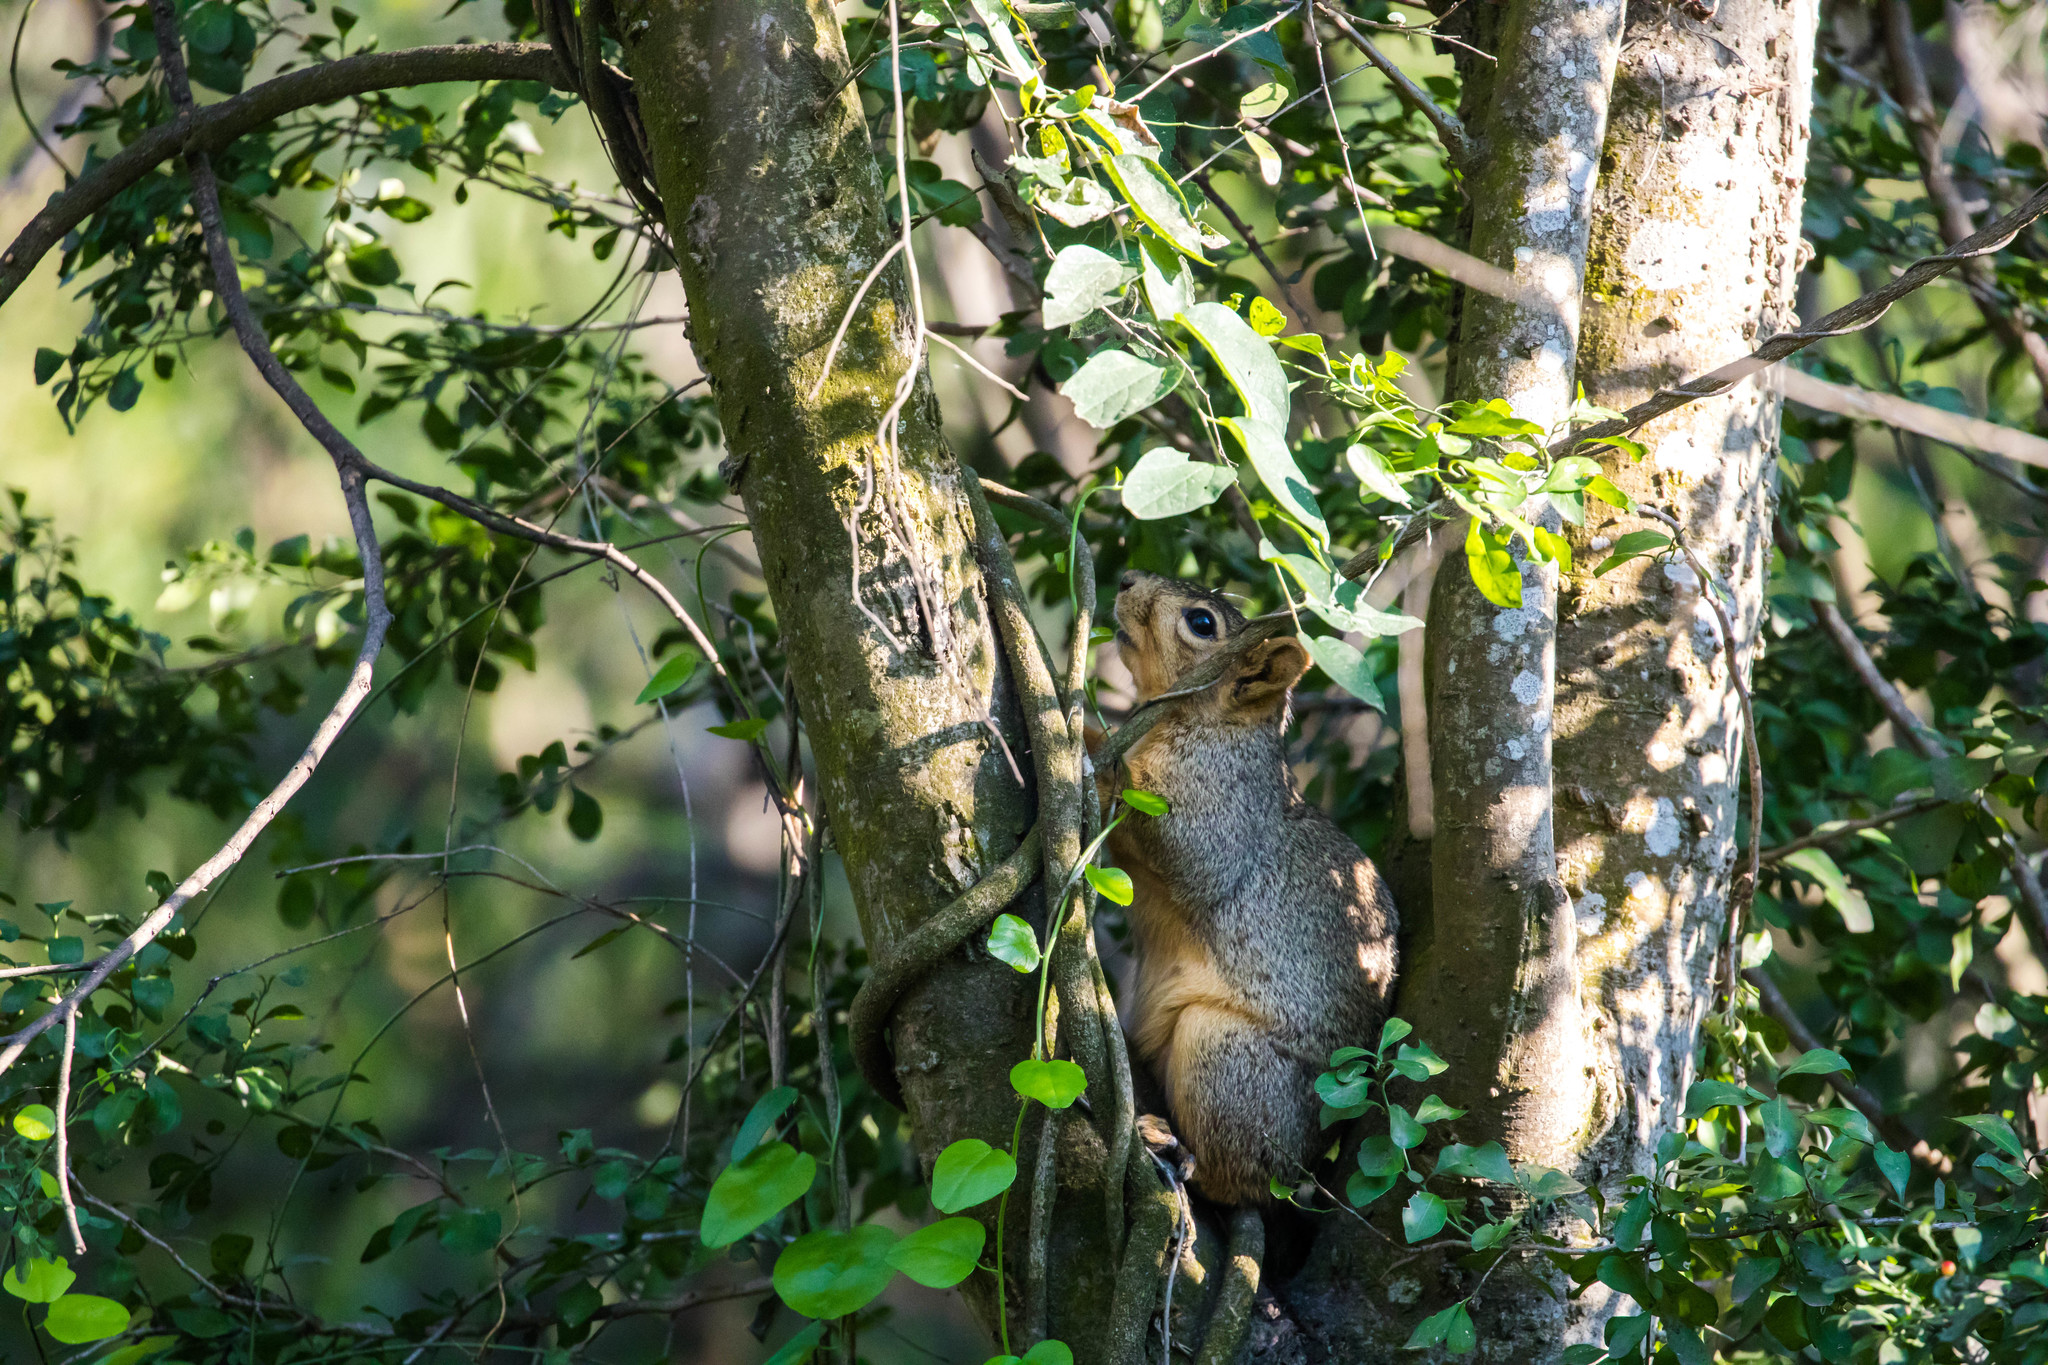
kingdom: Animalia
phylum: Chordata
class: Mammalia
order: Rodentia
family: Sciuridae
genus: Sciurus
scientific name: Sciurus niger
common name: Fox squirrel
